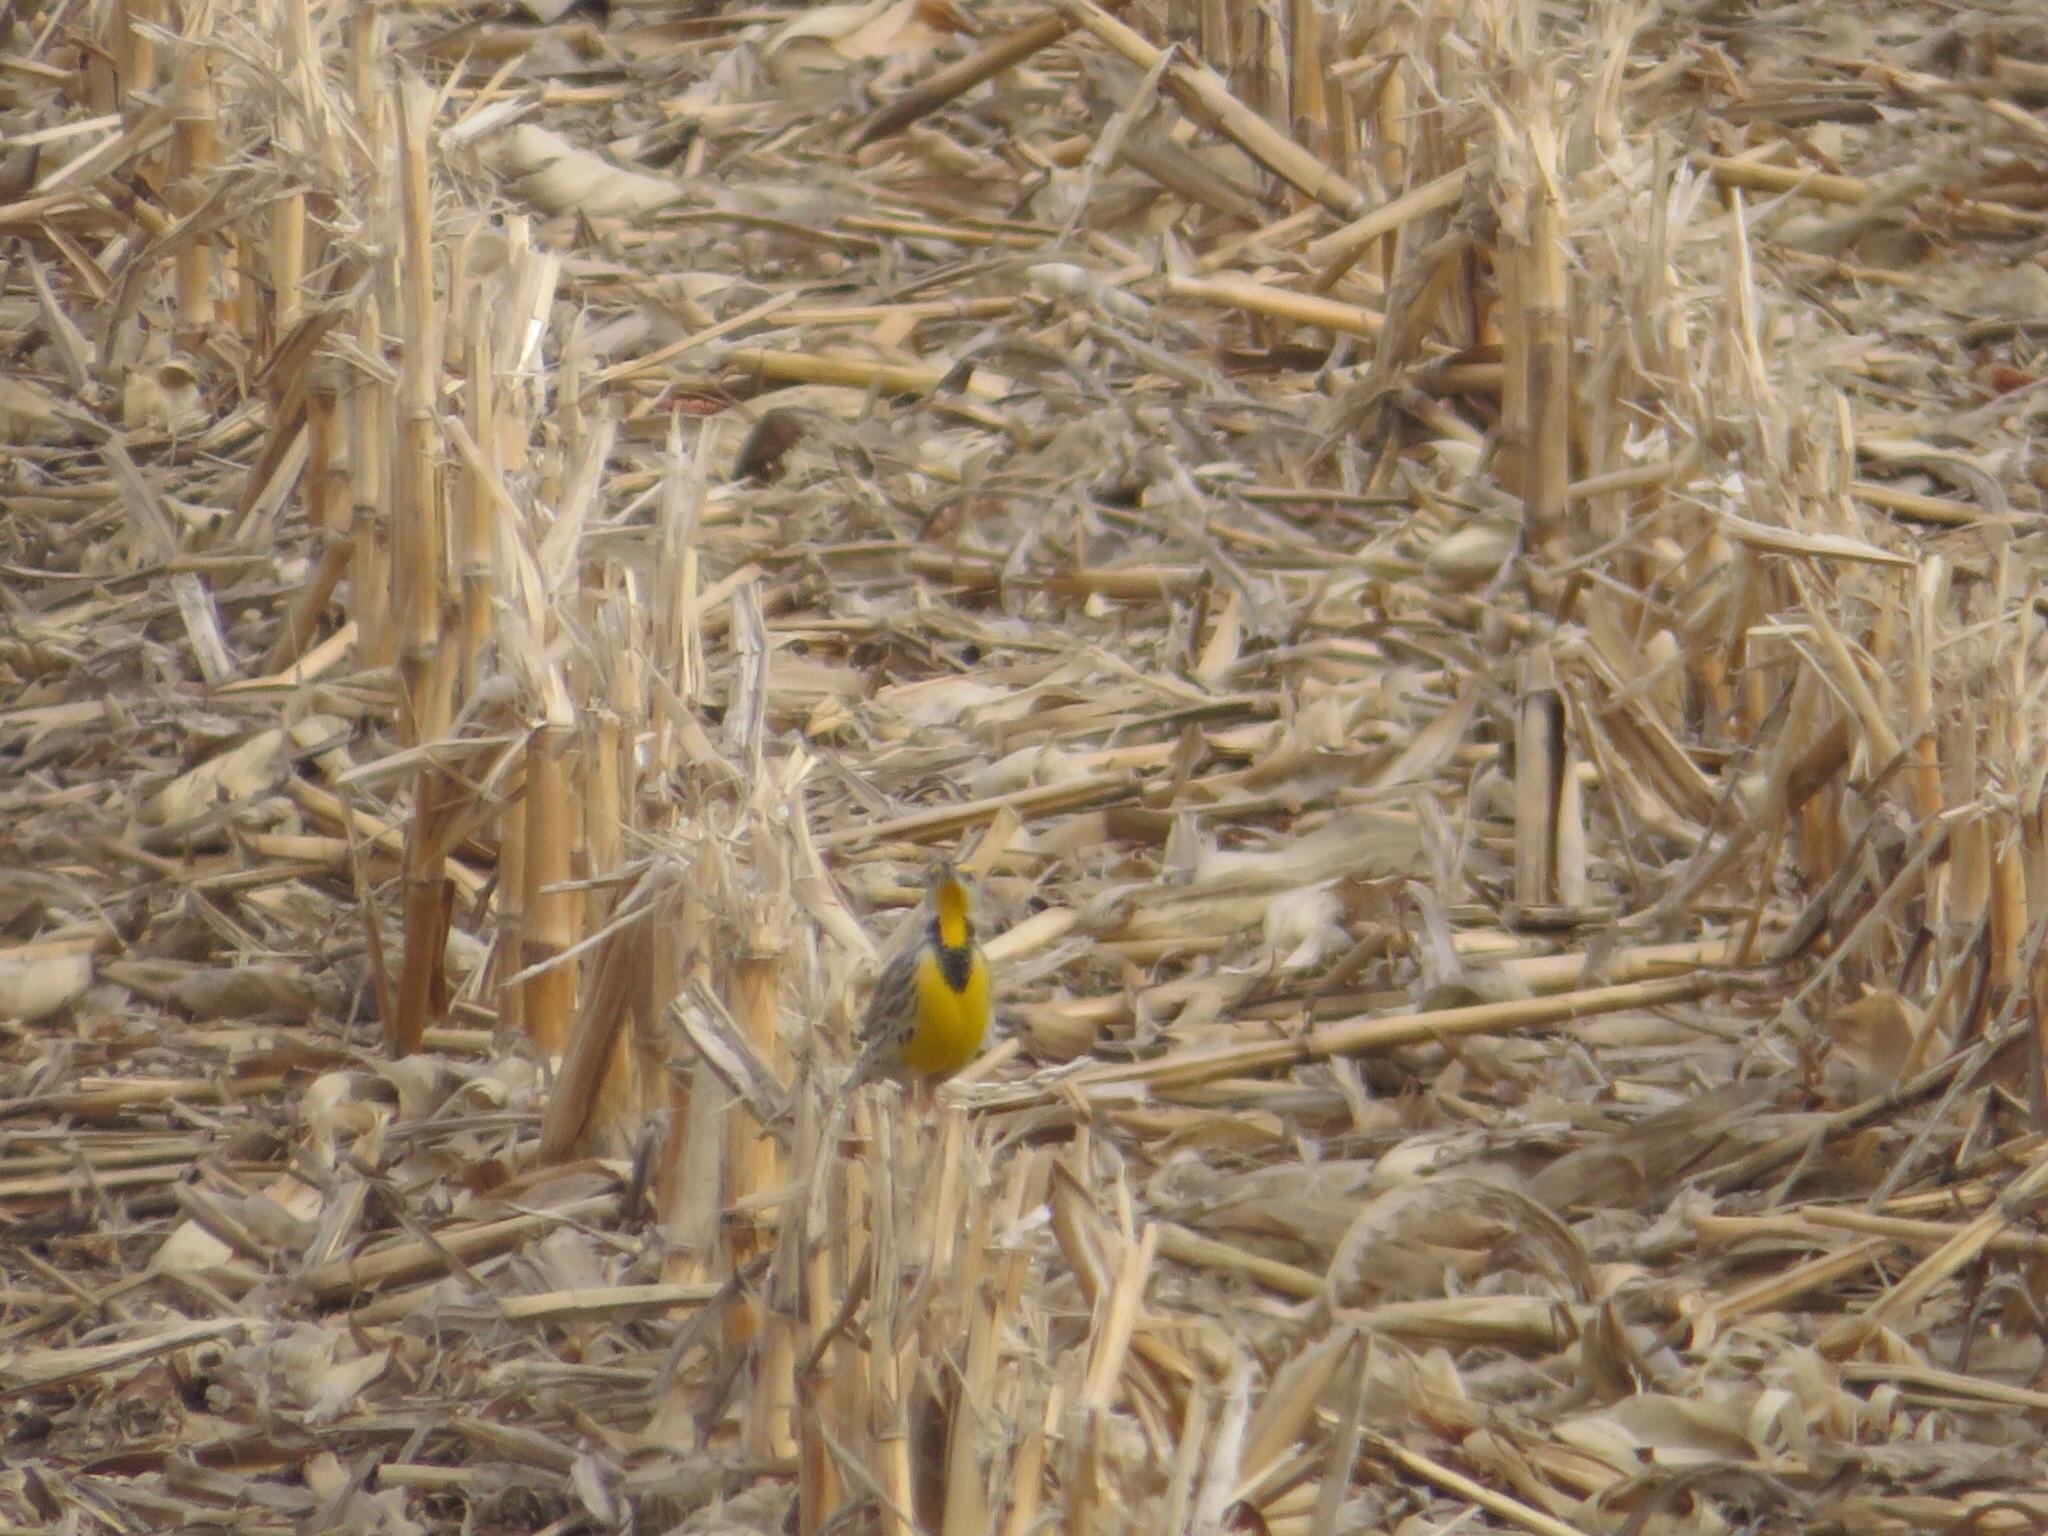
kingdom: Animalia
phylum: Chordata
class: Aves
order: Passeriformes
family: Icteridae
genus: Sturnella
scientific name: Sturnella magna
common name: Eastern meadowlark
